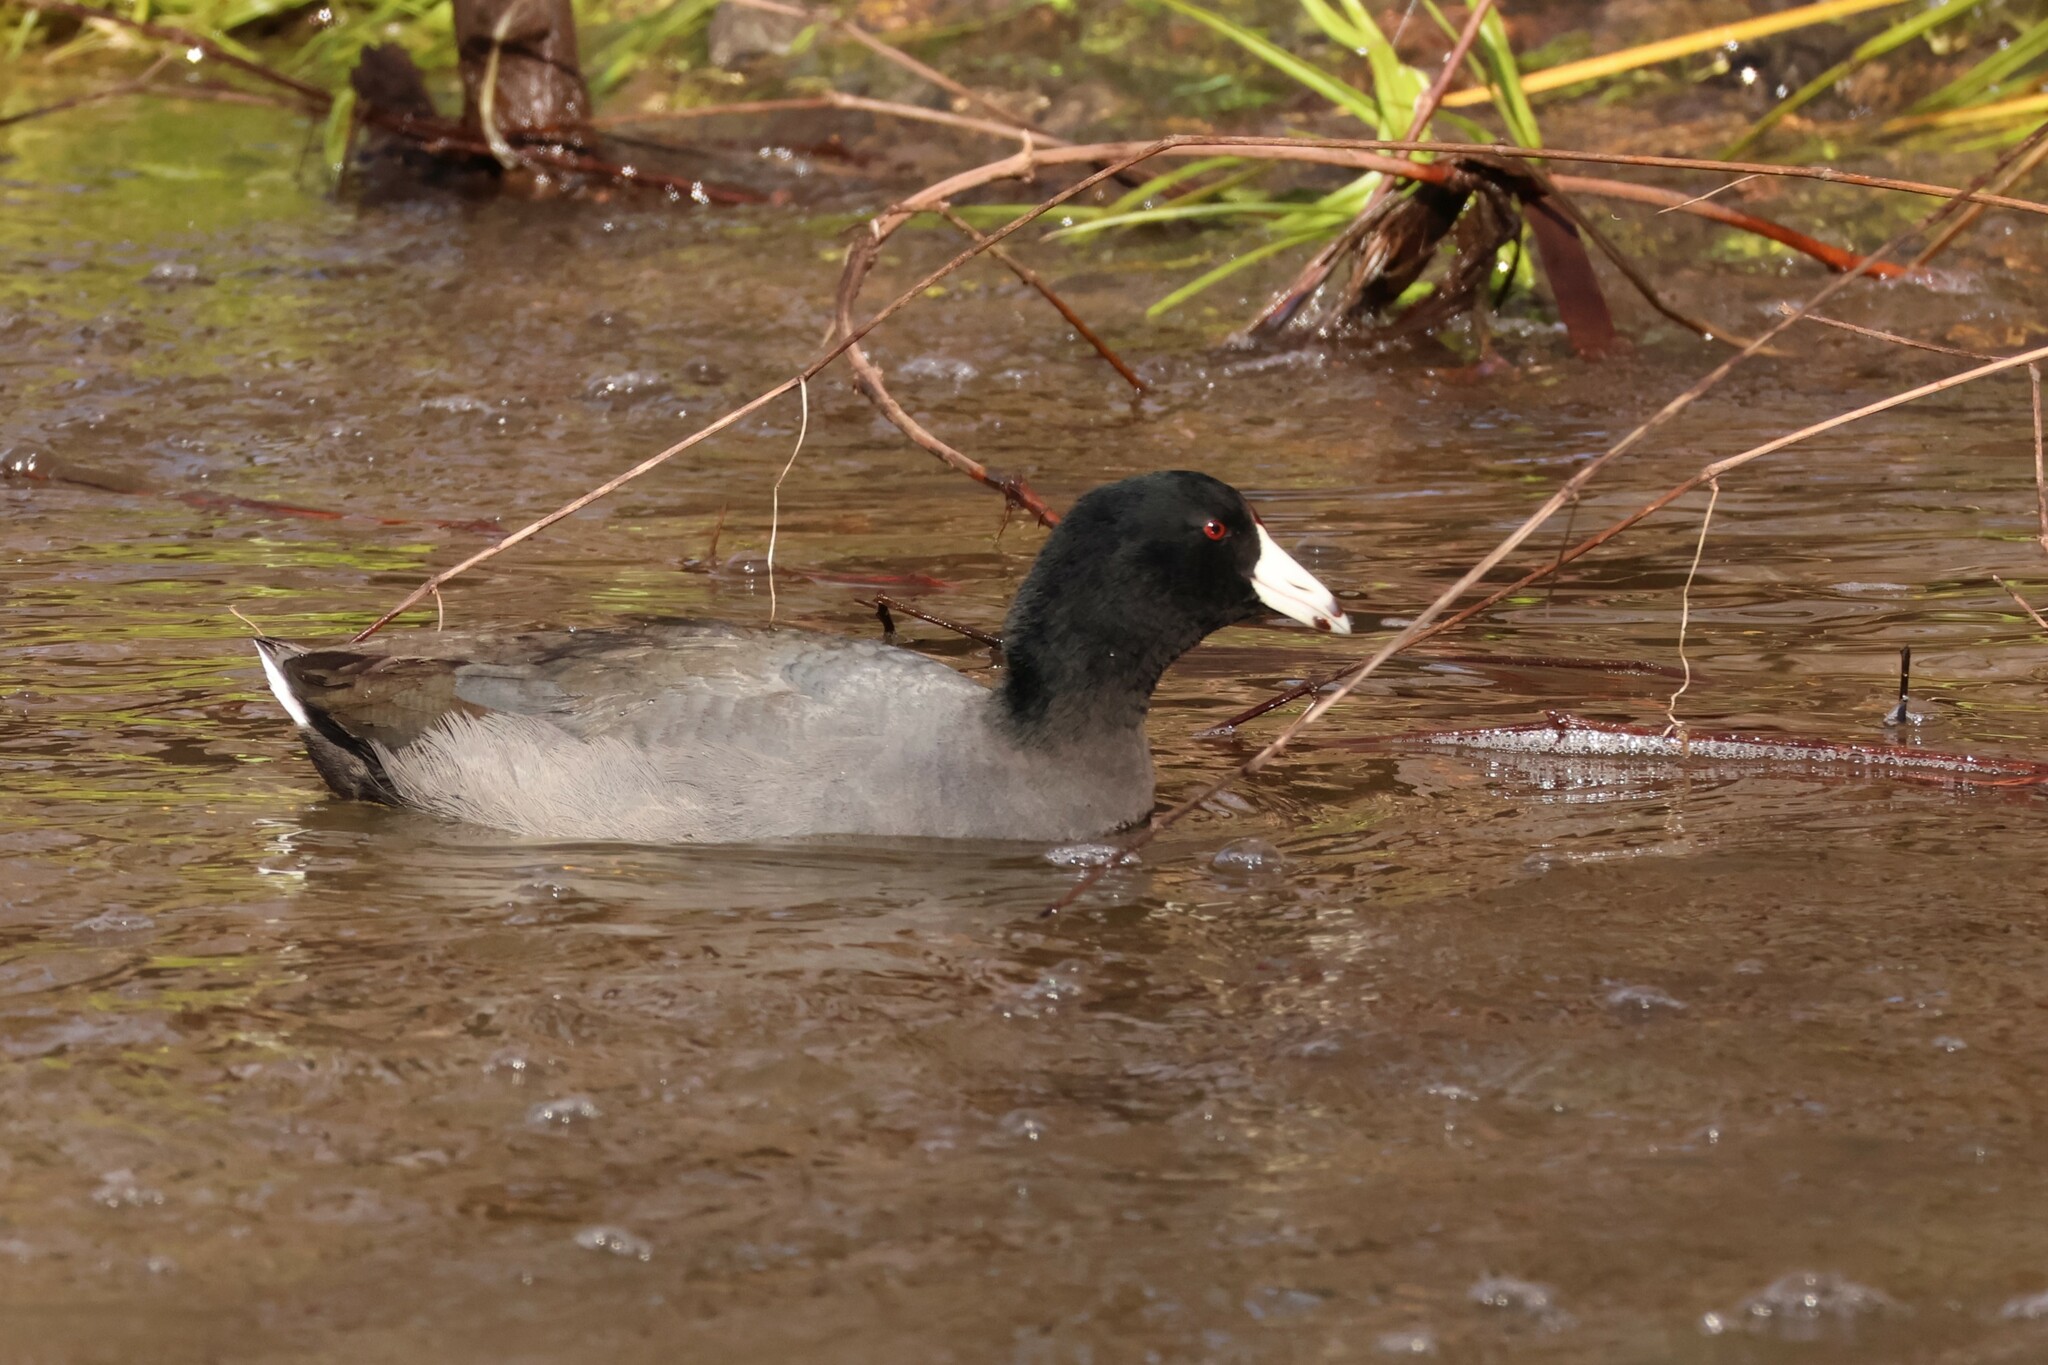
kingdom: Animalia
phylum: Chordata
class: Aves
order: Gruiformes
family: Rallidae
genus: Fulica
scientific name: Fulica americana
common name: American coot
